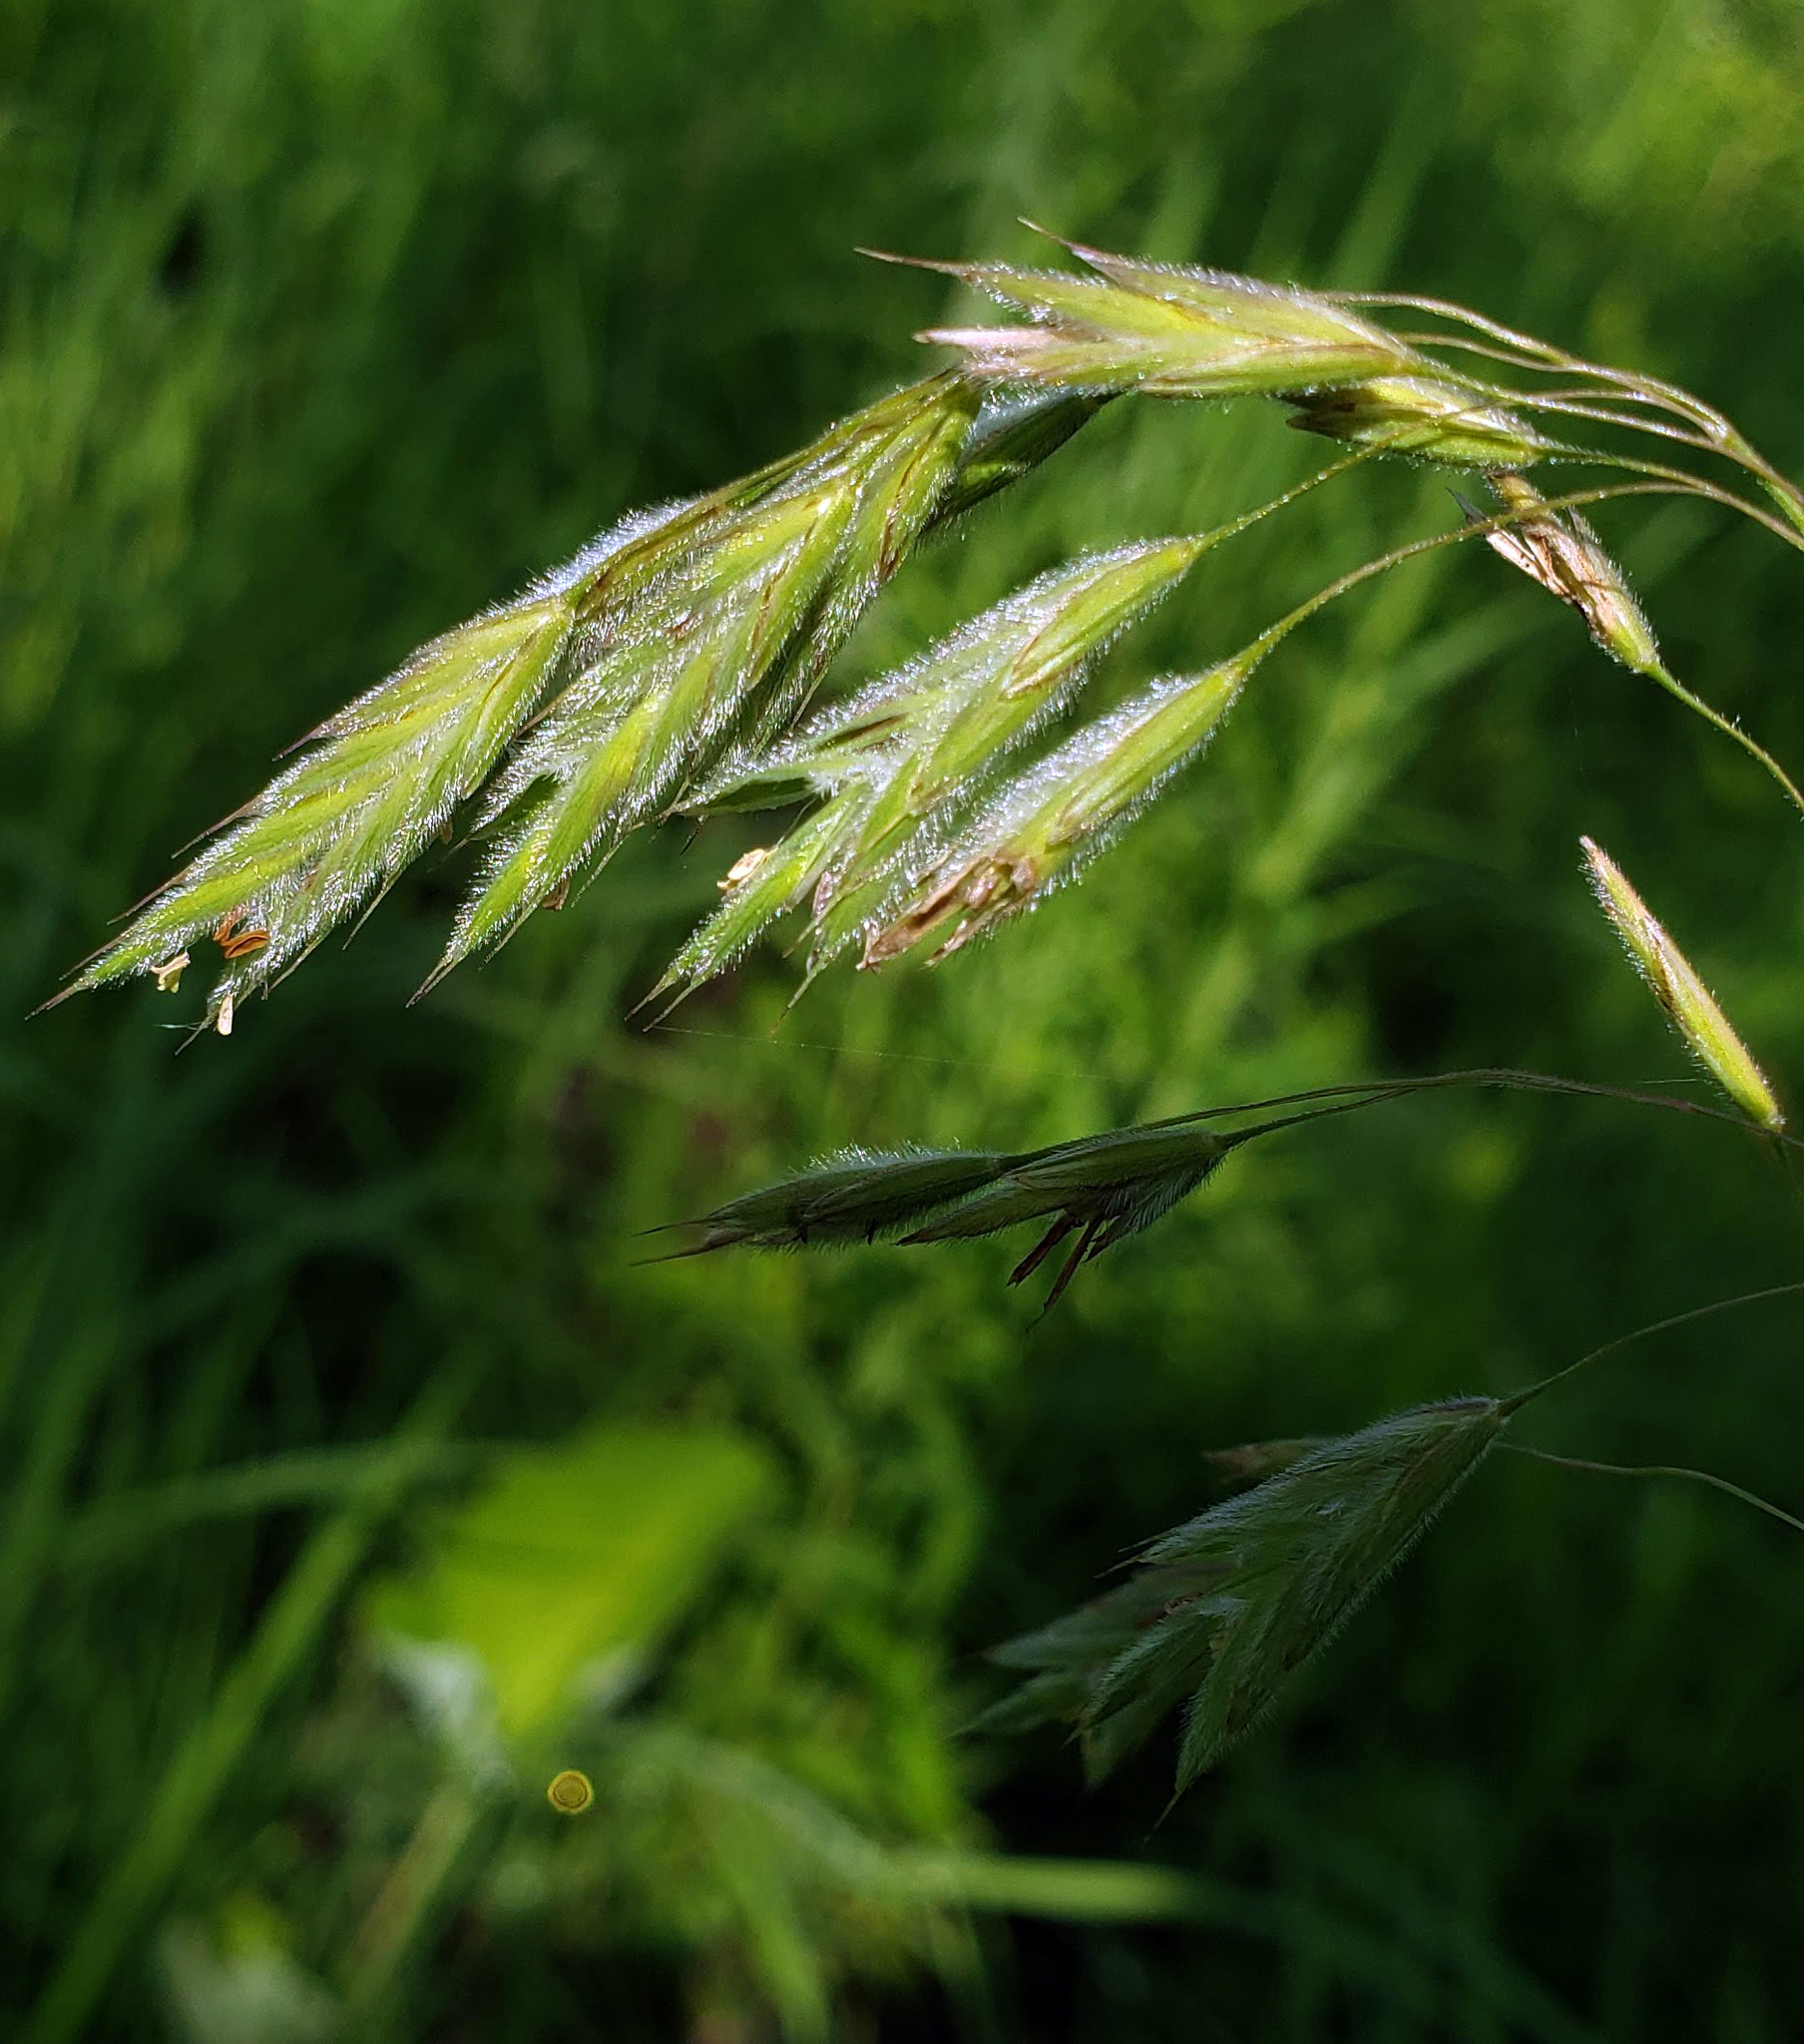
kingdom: Plantae
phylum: Tracheophyta
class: Liliopsida
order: Poales
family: Poaceae
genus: Bromus
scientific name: Bromus kalmii
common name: Kalm brome
